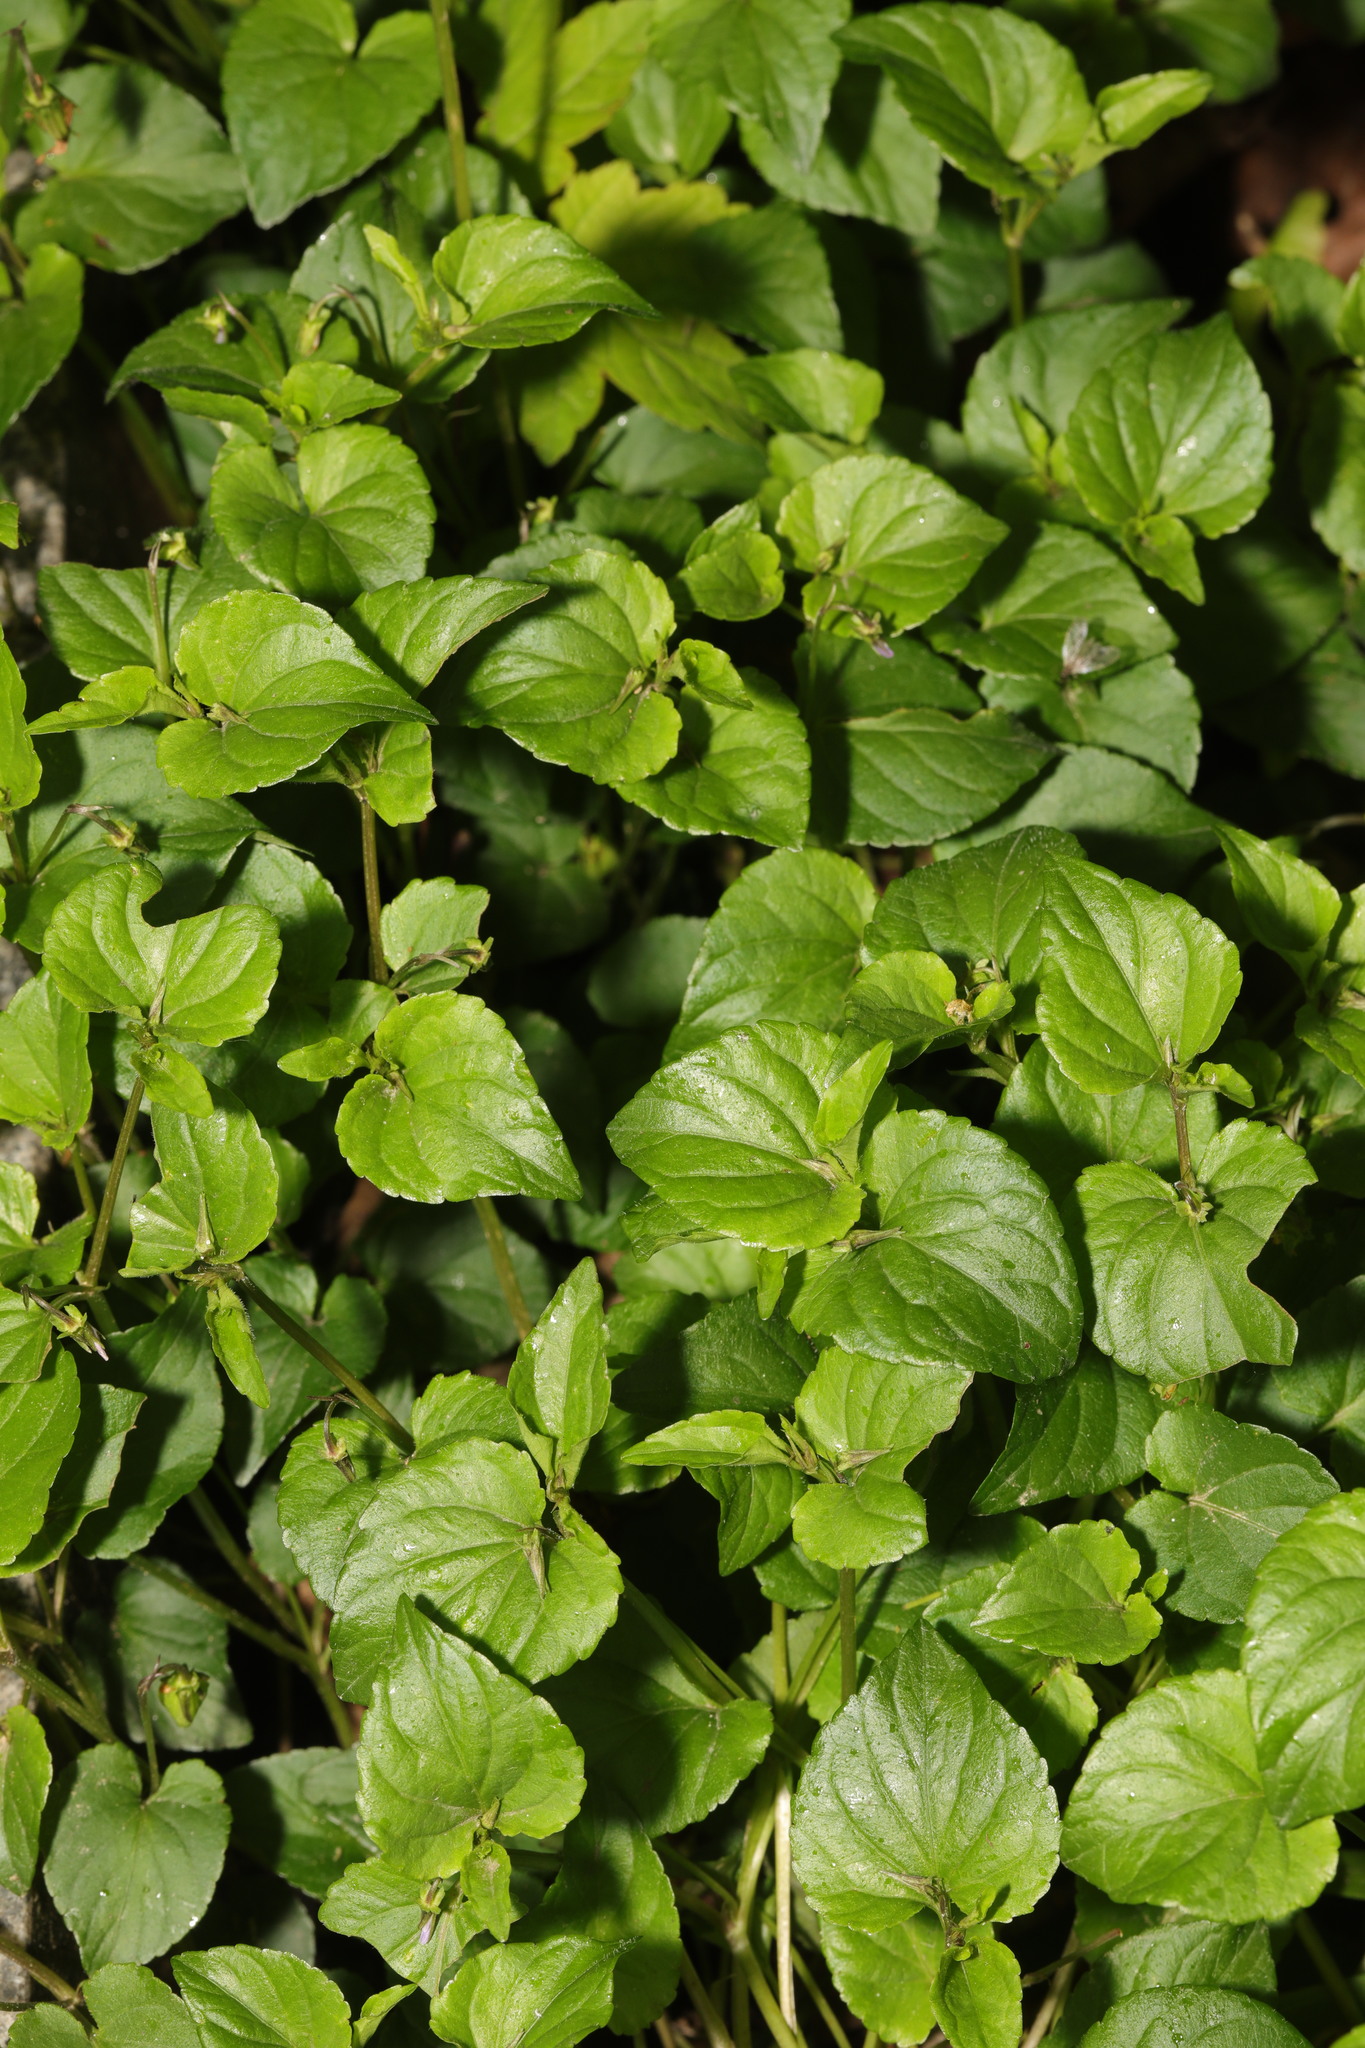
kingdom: Plantae
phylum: Tracheophyta
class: Magnoliopsida
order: Malpighiales
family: Violaceae
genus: Viola
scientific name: Viola riviniana
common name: Common dog-violet
